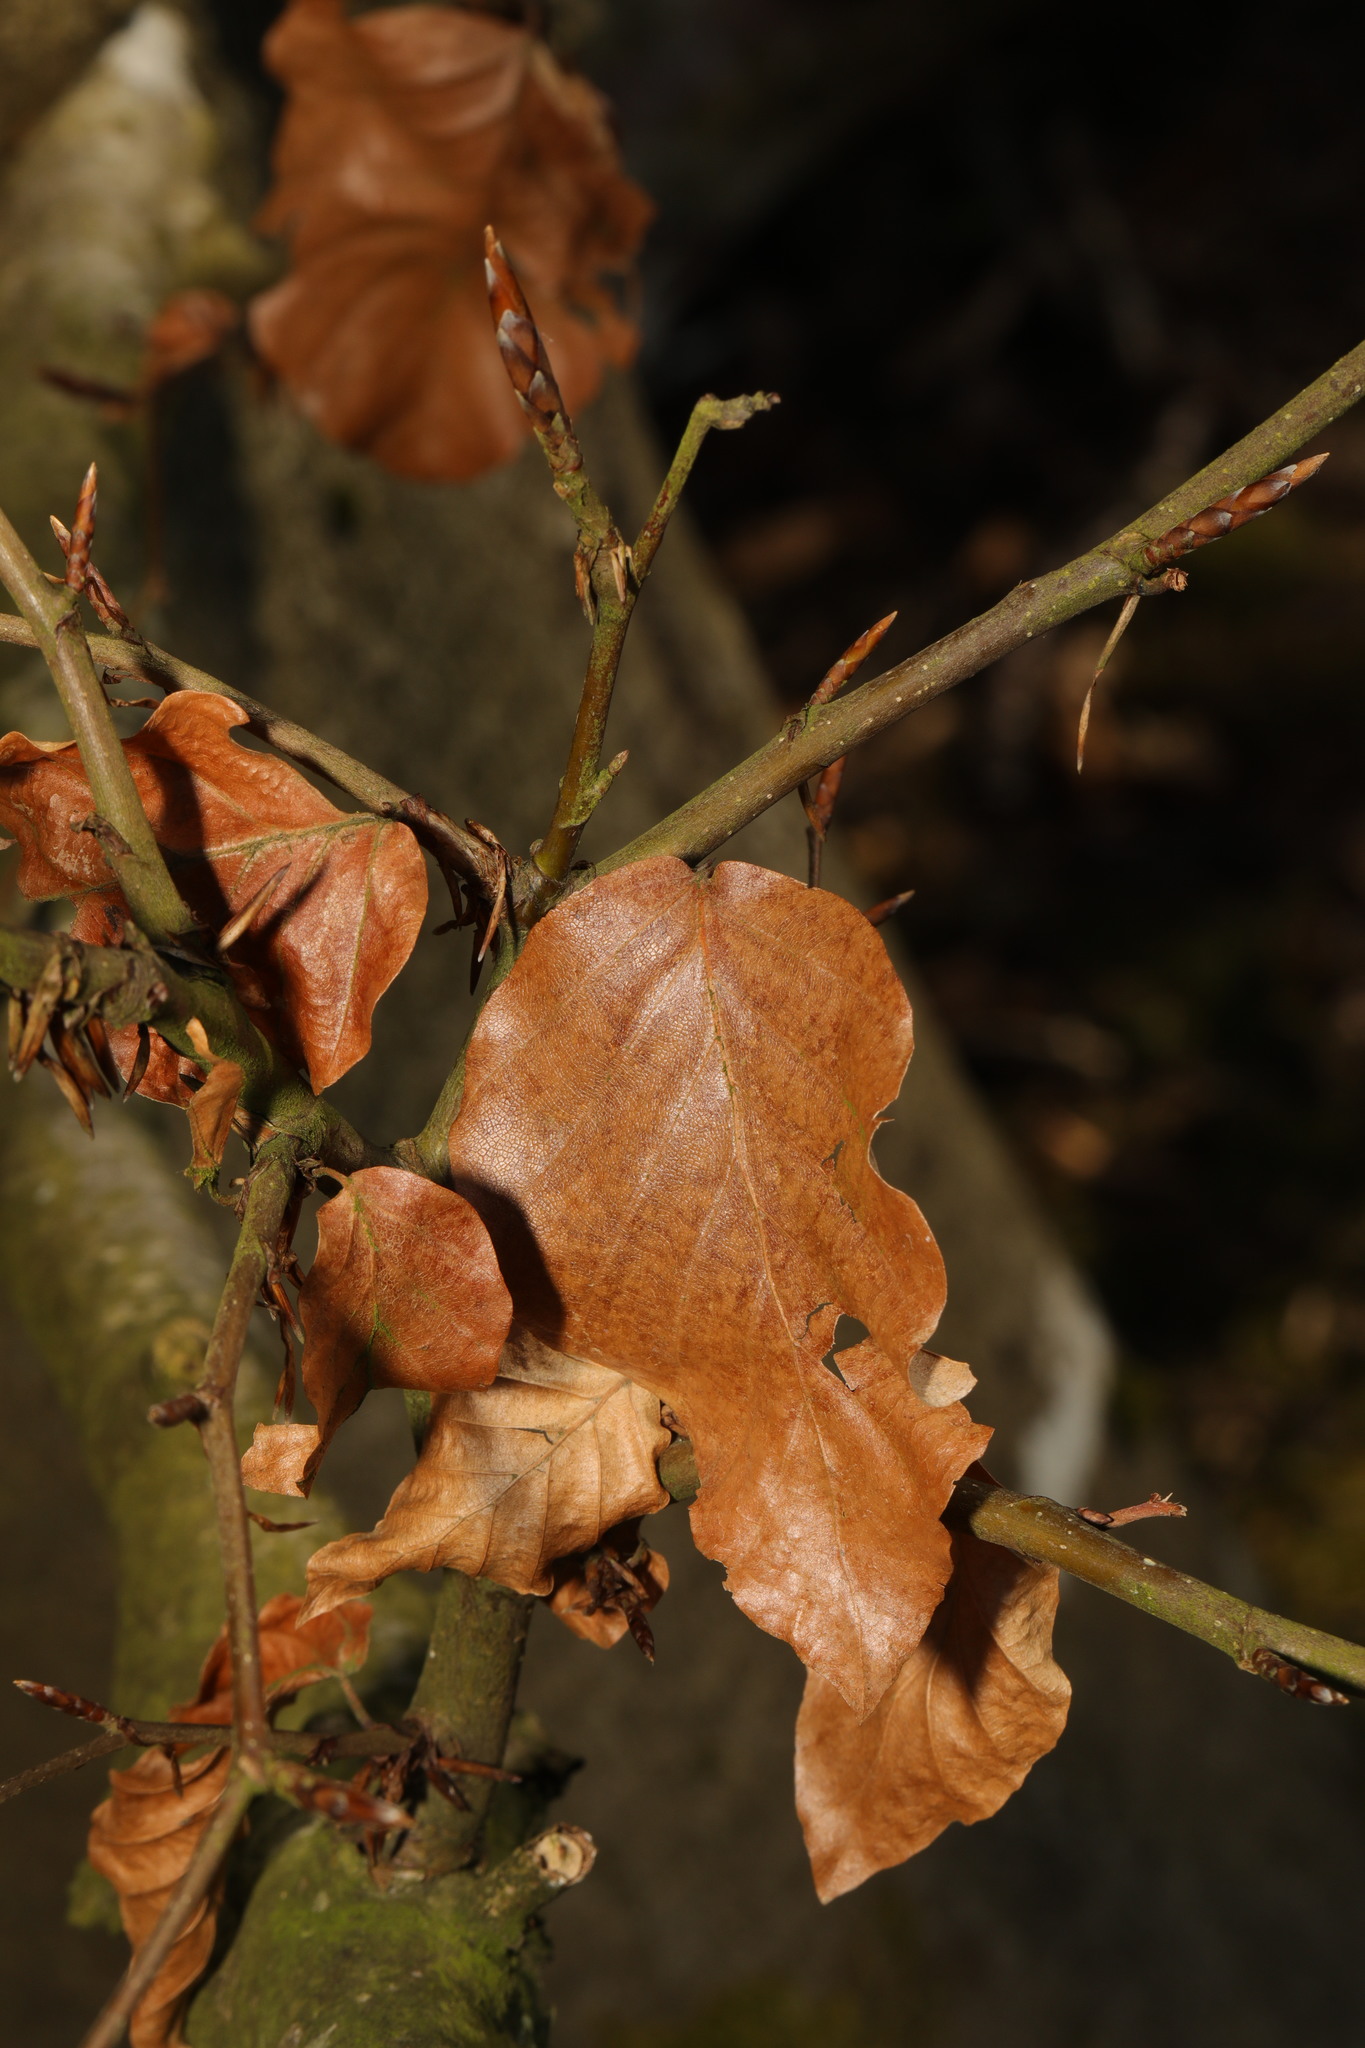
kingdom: Plantae
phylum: Tracheophyta
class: Magnoliopsida
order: Fagales
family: Fagaceae
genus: Fagus
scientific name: Fagus sylvatica
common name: Beech
